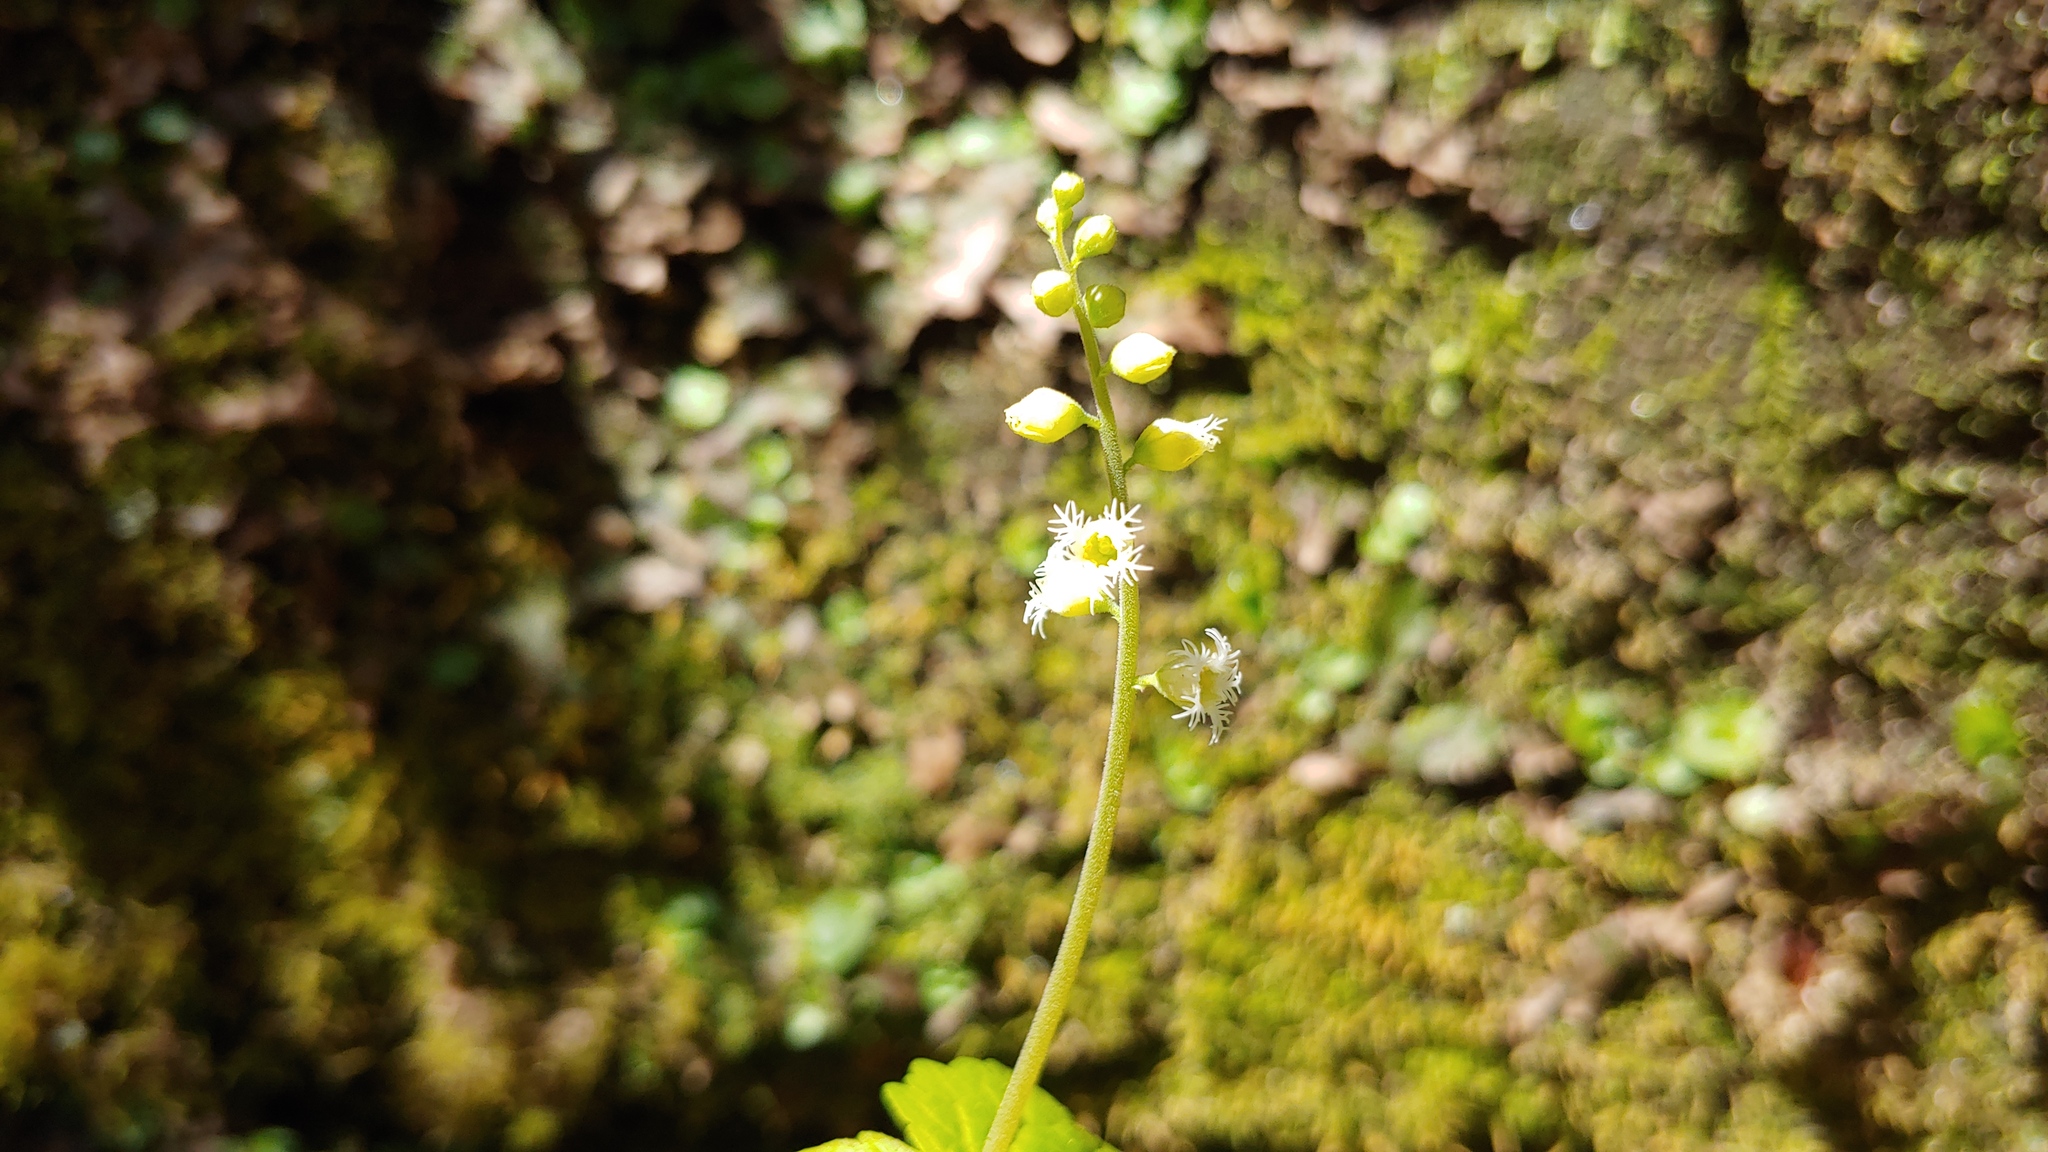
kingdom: Plantae
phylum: Tracheophyta
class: Magnoliopsida
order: Saxifragales
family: Saxifragaceae
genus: Mitella
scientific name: Mitella diphylla
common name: Coolwort
